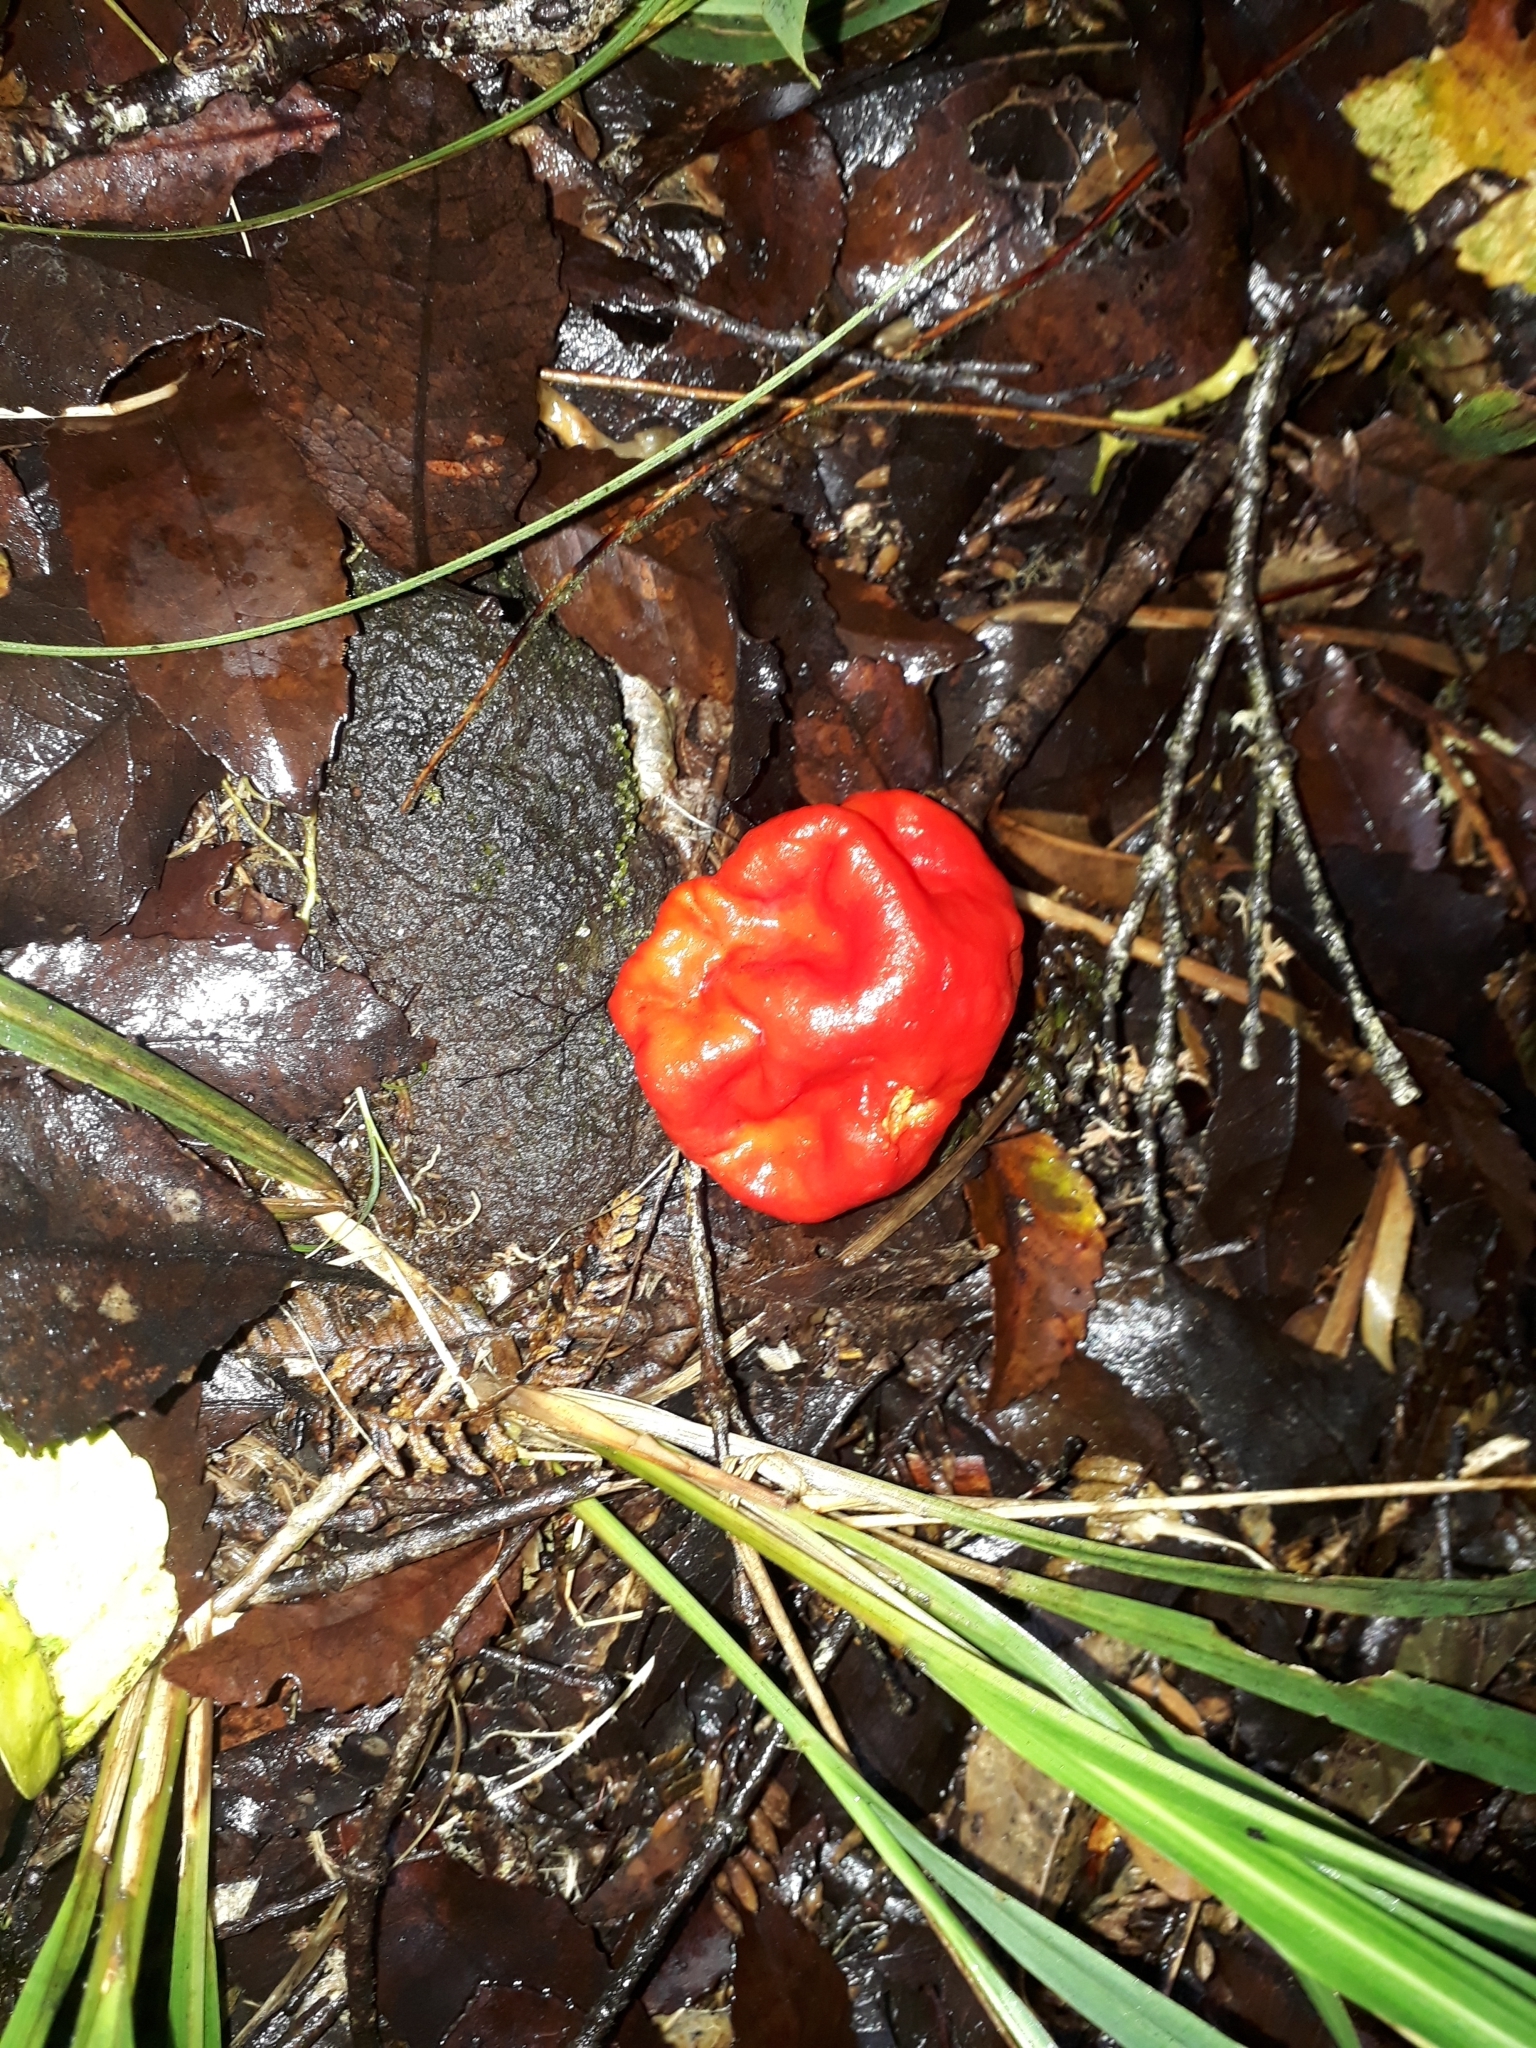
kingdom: Fungi
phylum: Ascomycota
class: Pezizomycetes
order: Pezizales
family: Pyronemataceae
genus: Paurocotylis
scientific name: Paurocotylis pila
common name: Scarlet berry truffle
